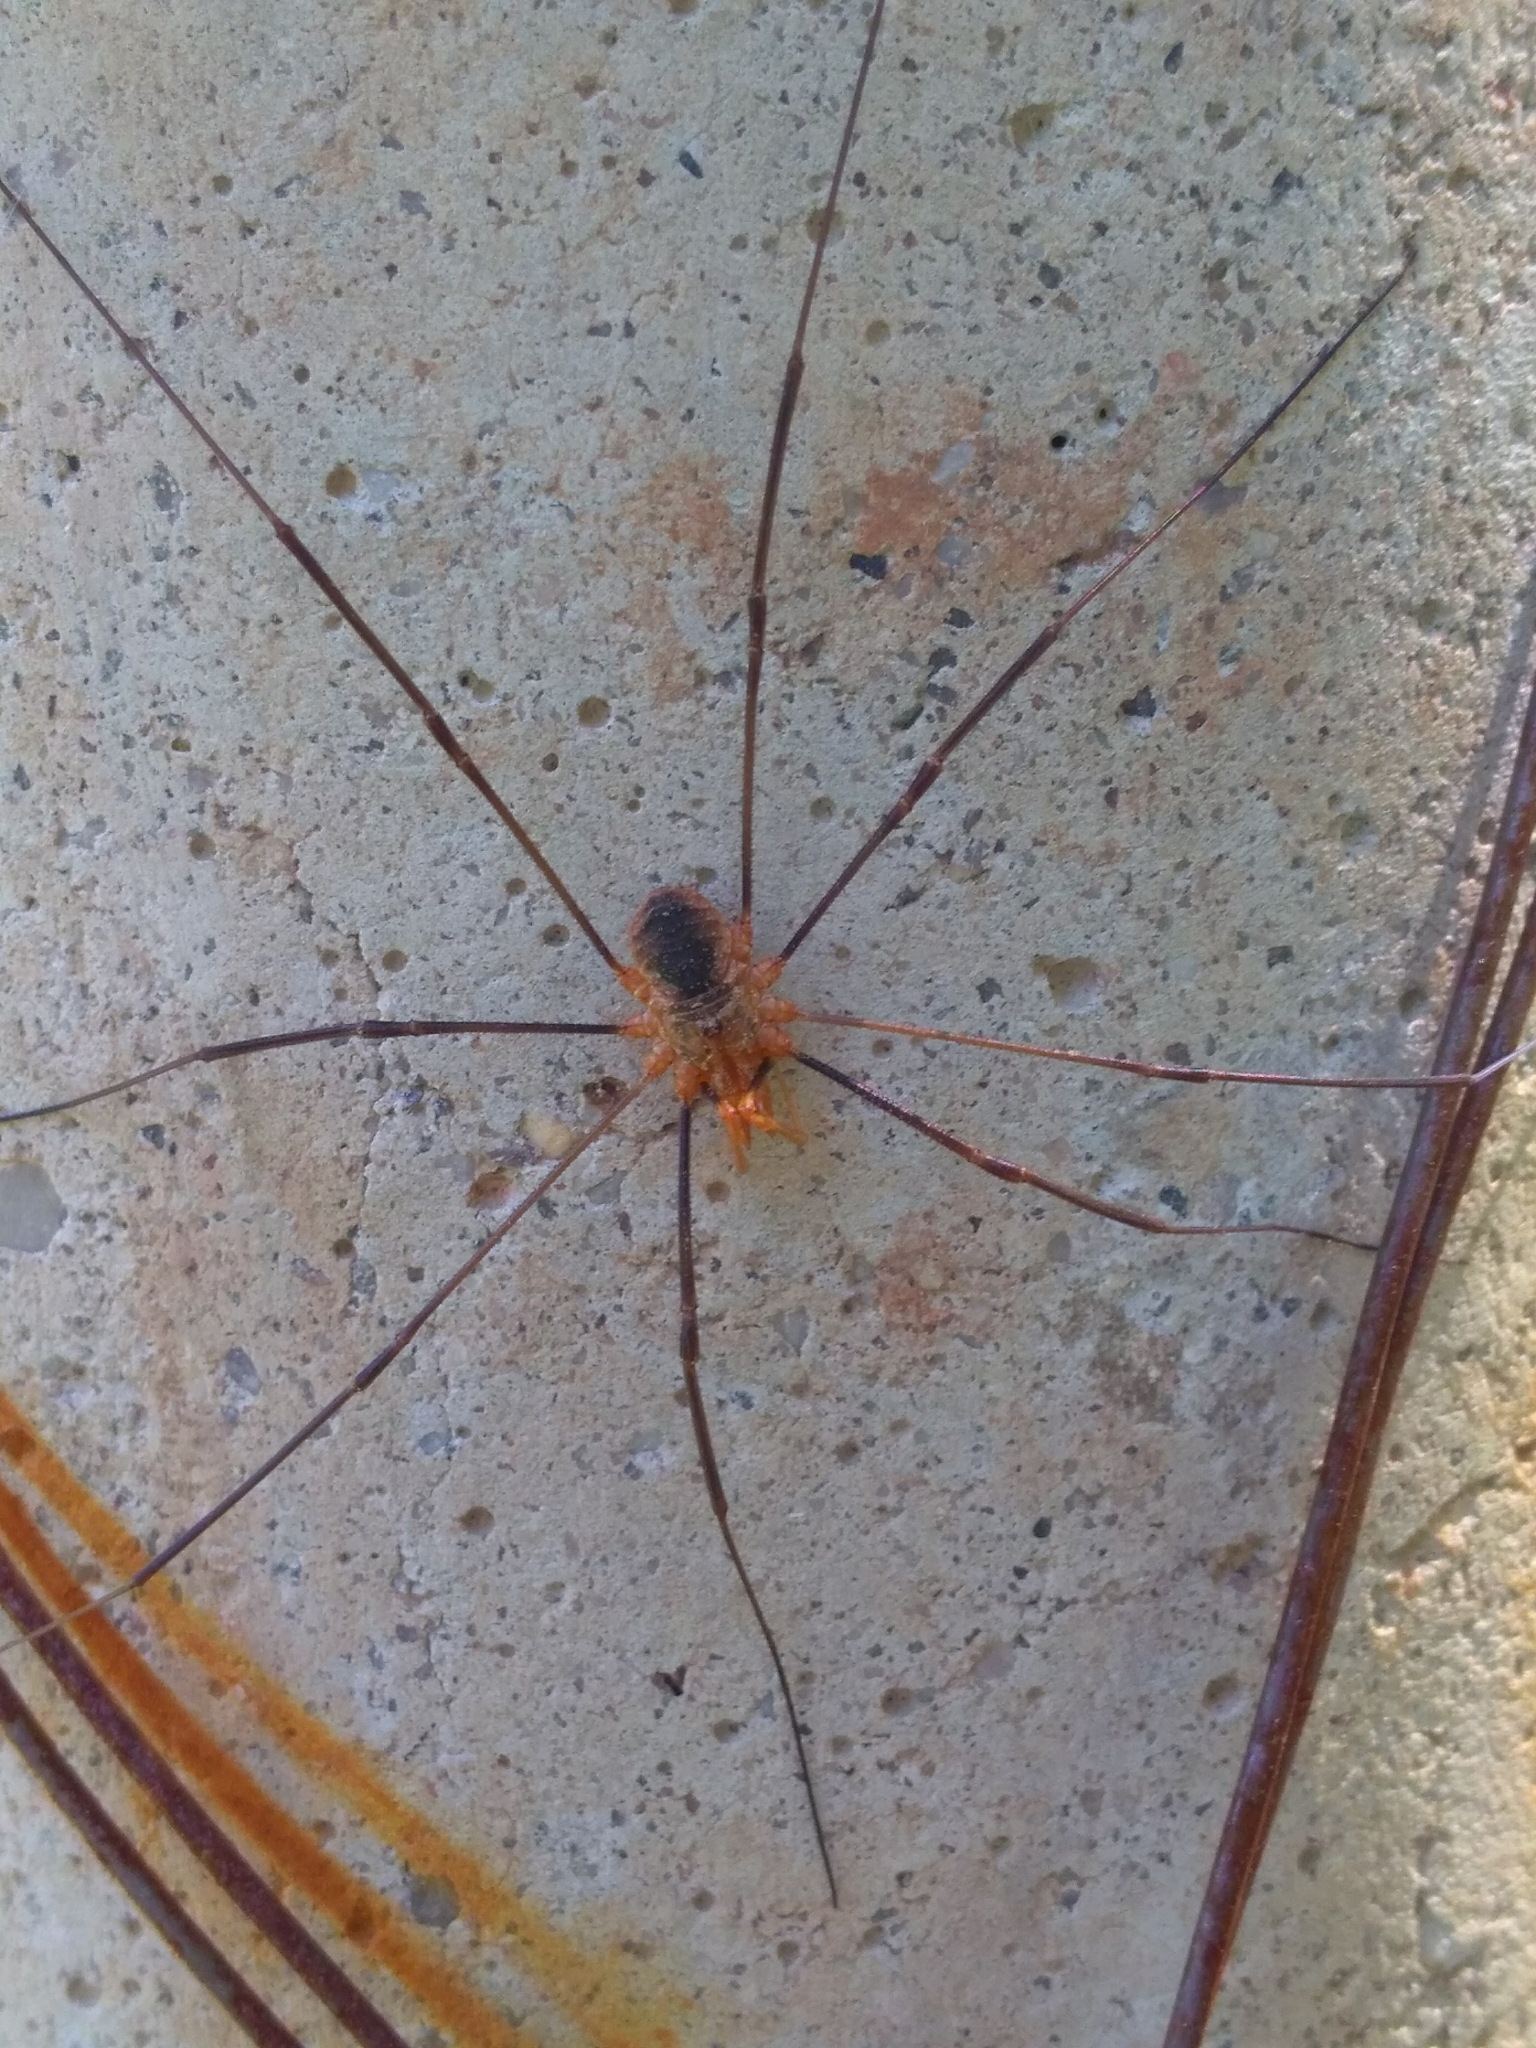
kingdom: Animalia
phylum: Arthropoda
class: Arachnida
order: Opiliones
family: Phalangiidae
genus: Phalangium
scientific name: Phalangium opilio
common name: Daddy longleg
